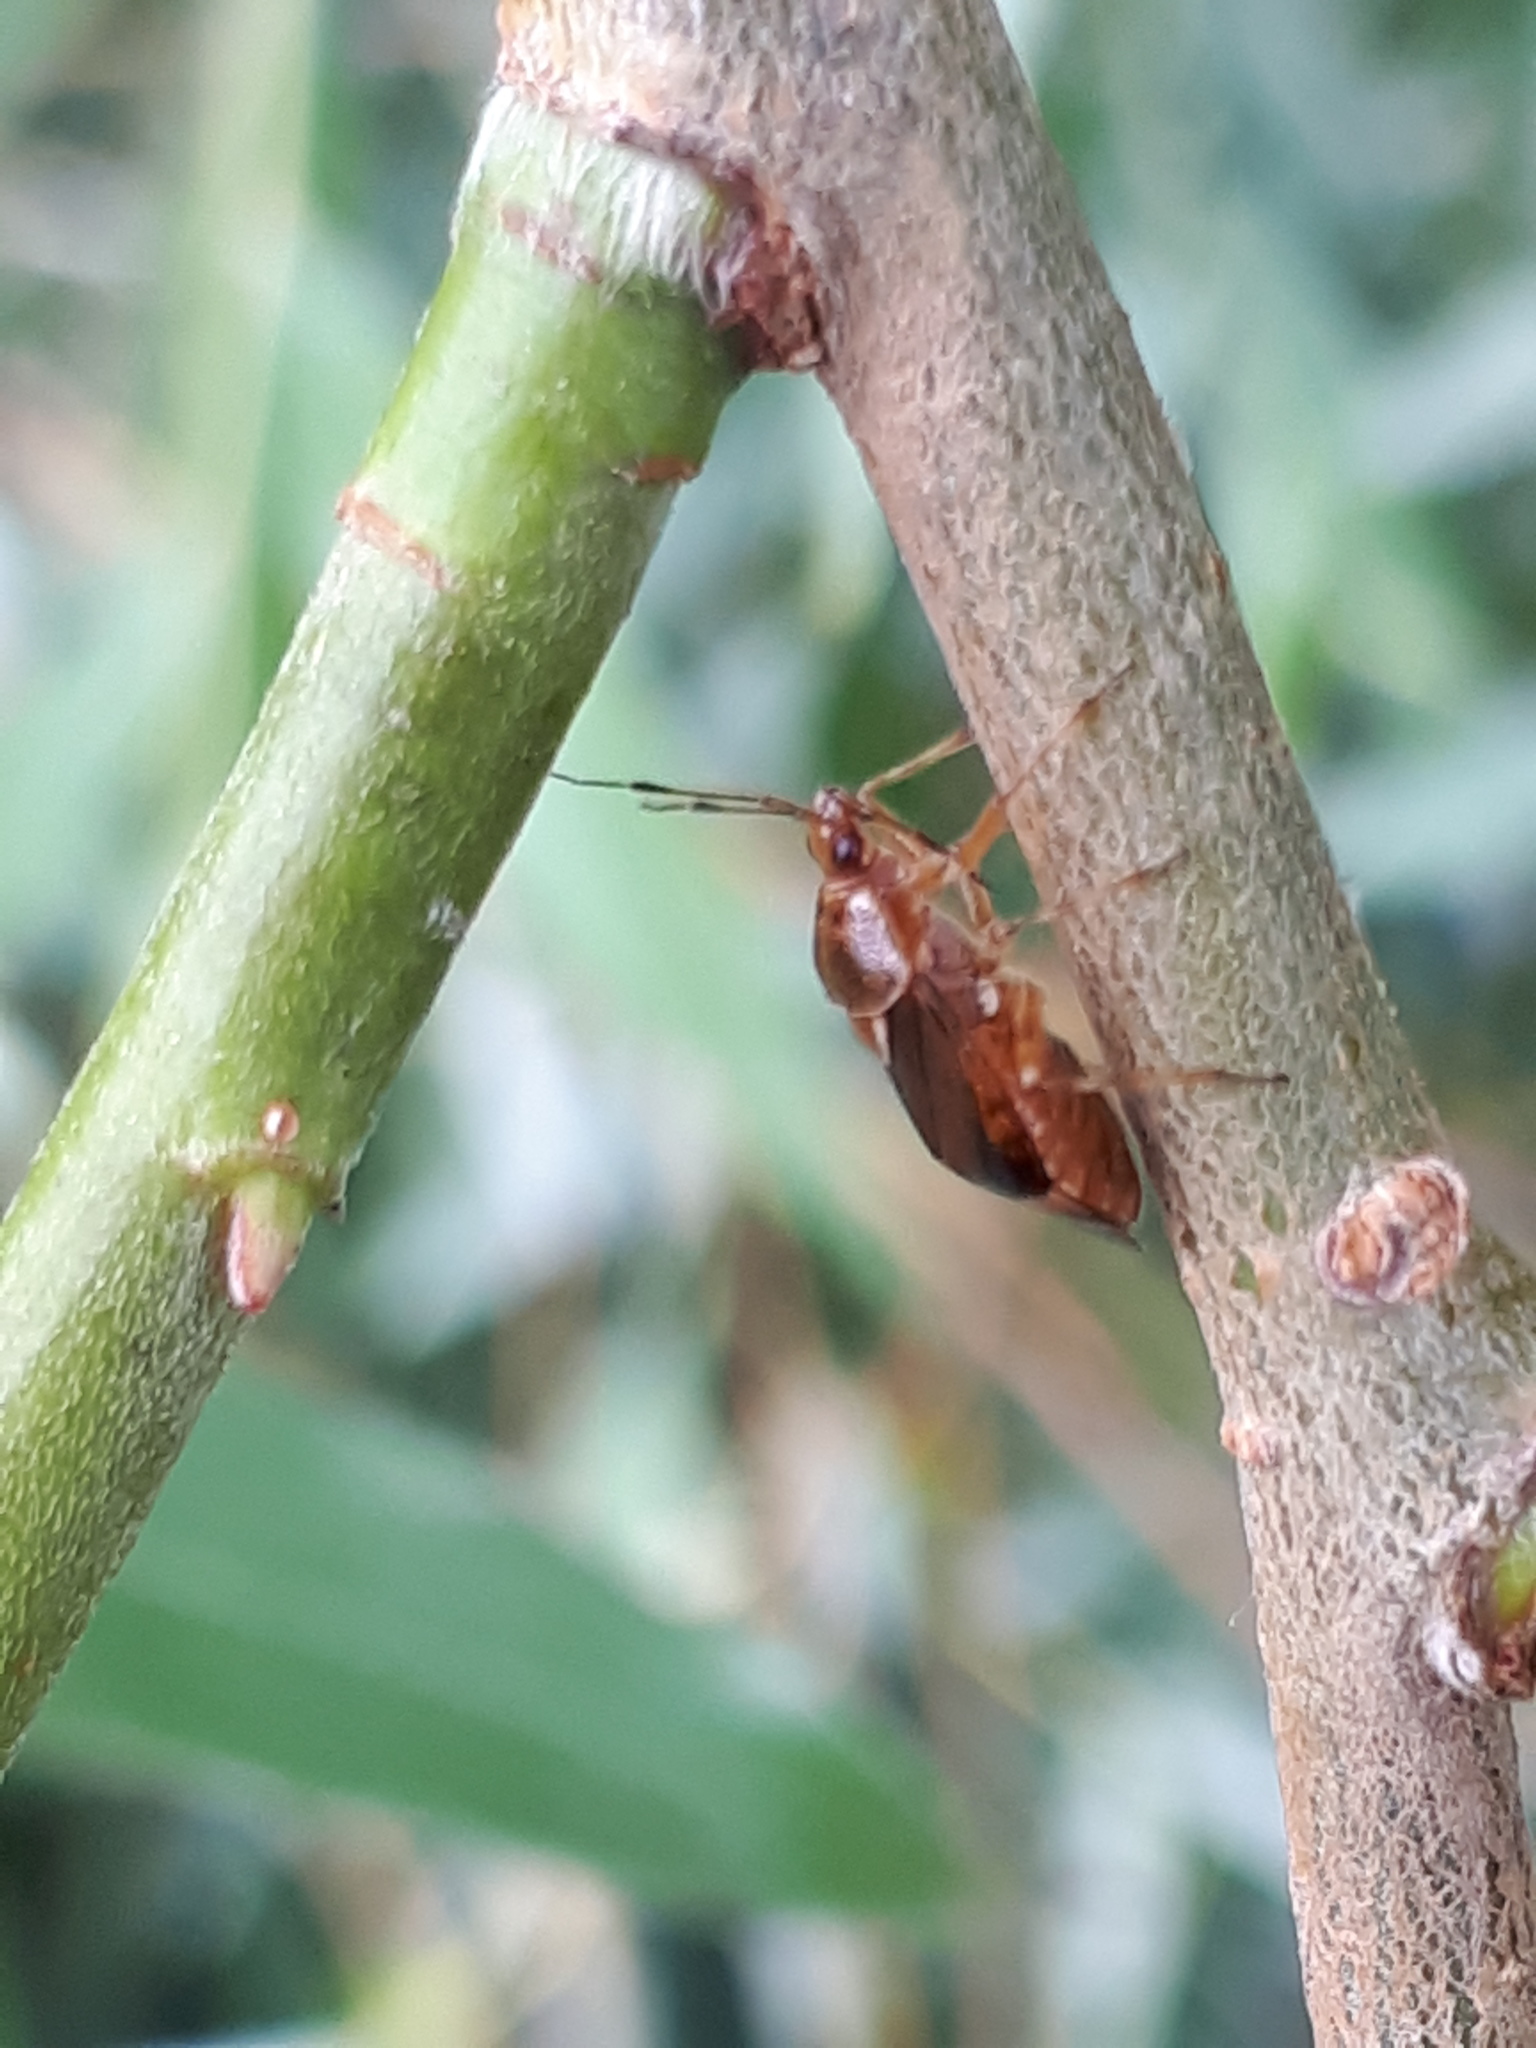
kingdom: Animalia
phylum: Arthropoda
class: Insecta
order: Hemiptera
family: Miridae
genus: Deraeocoris
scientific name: Deraeocoris flavilinea
